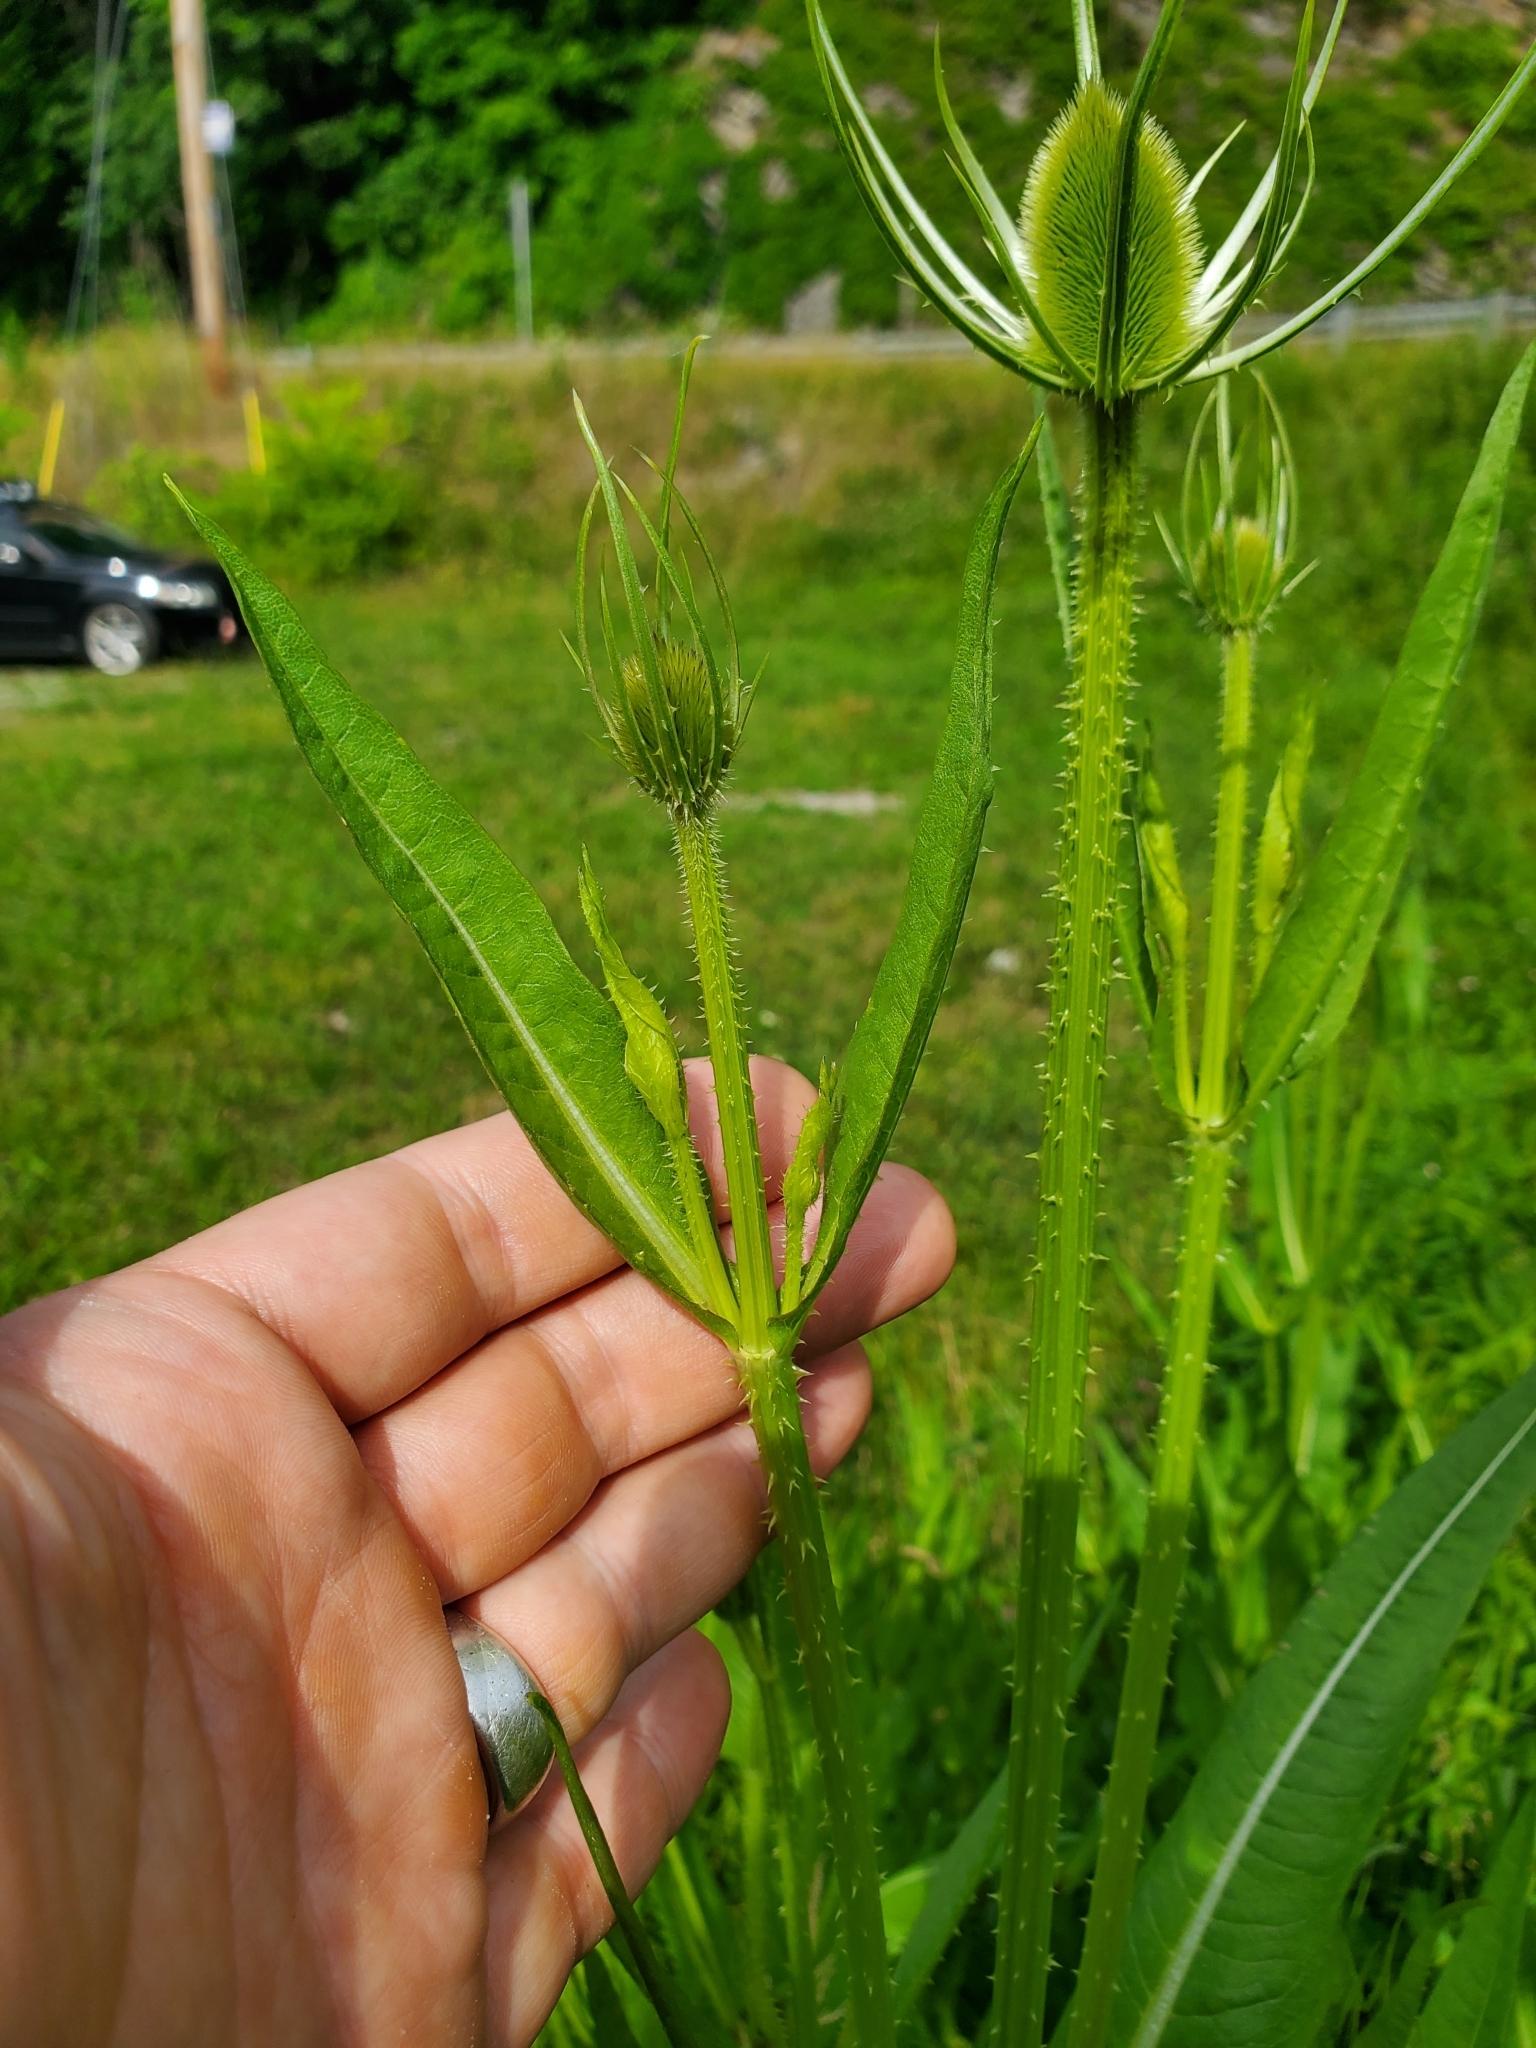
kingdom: Plantae
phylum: Tracheophyta
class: Magnoliopsida
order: Dipsacales
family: Caprifoliaceae
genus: Dipsacus
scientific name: Dipsacus fullonum
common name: Teasel
